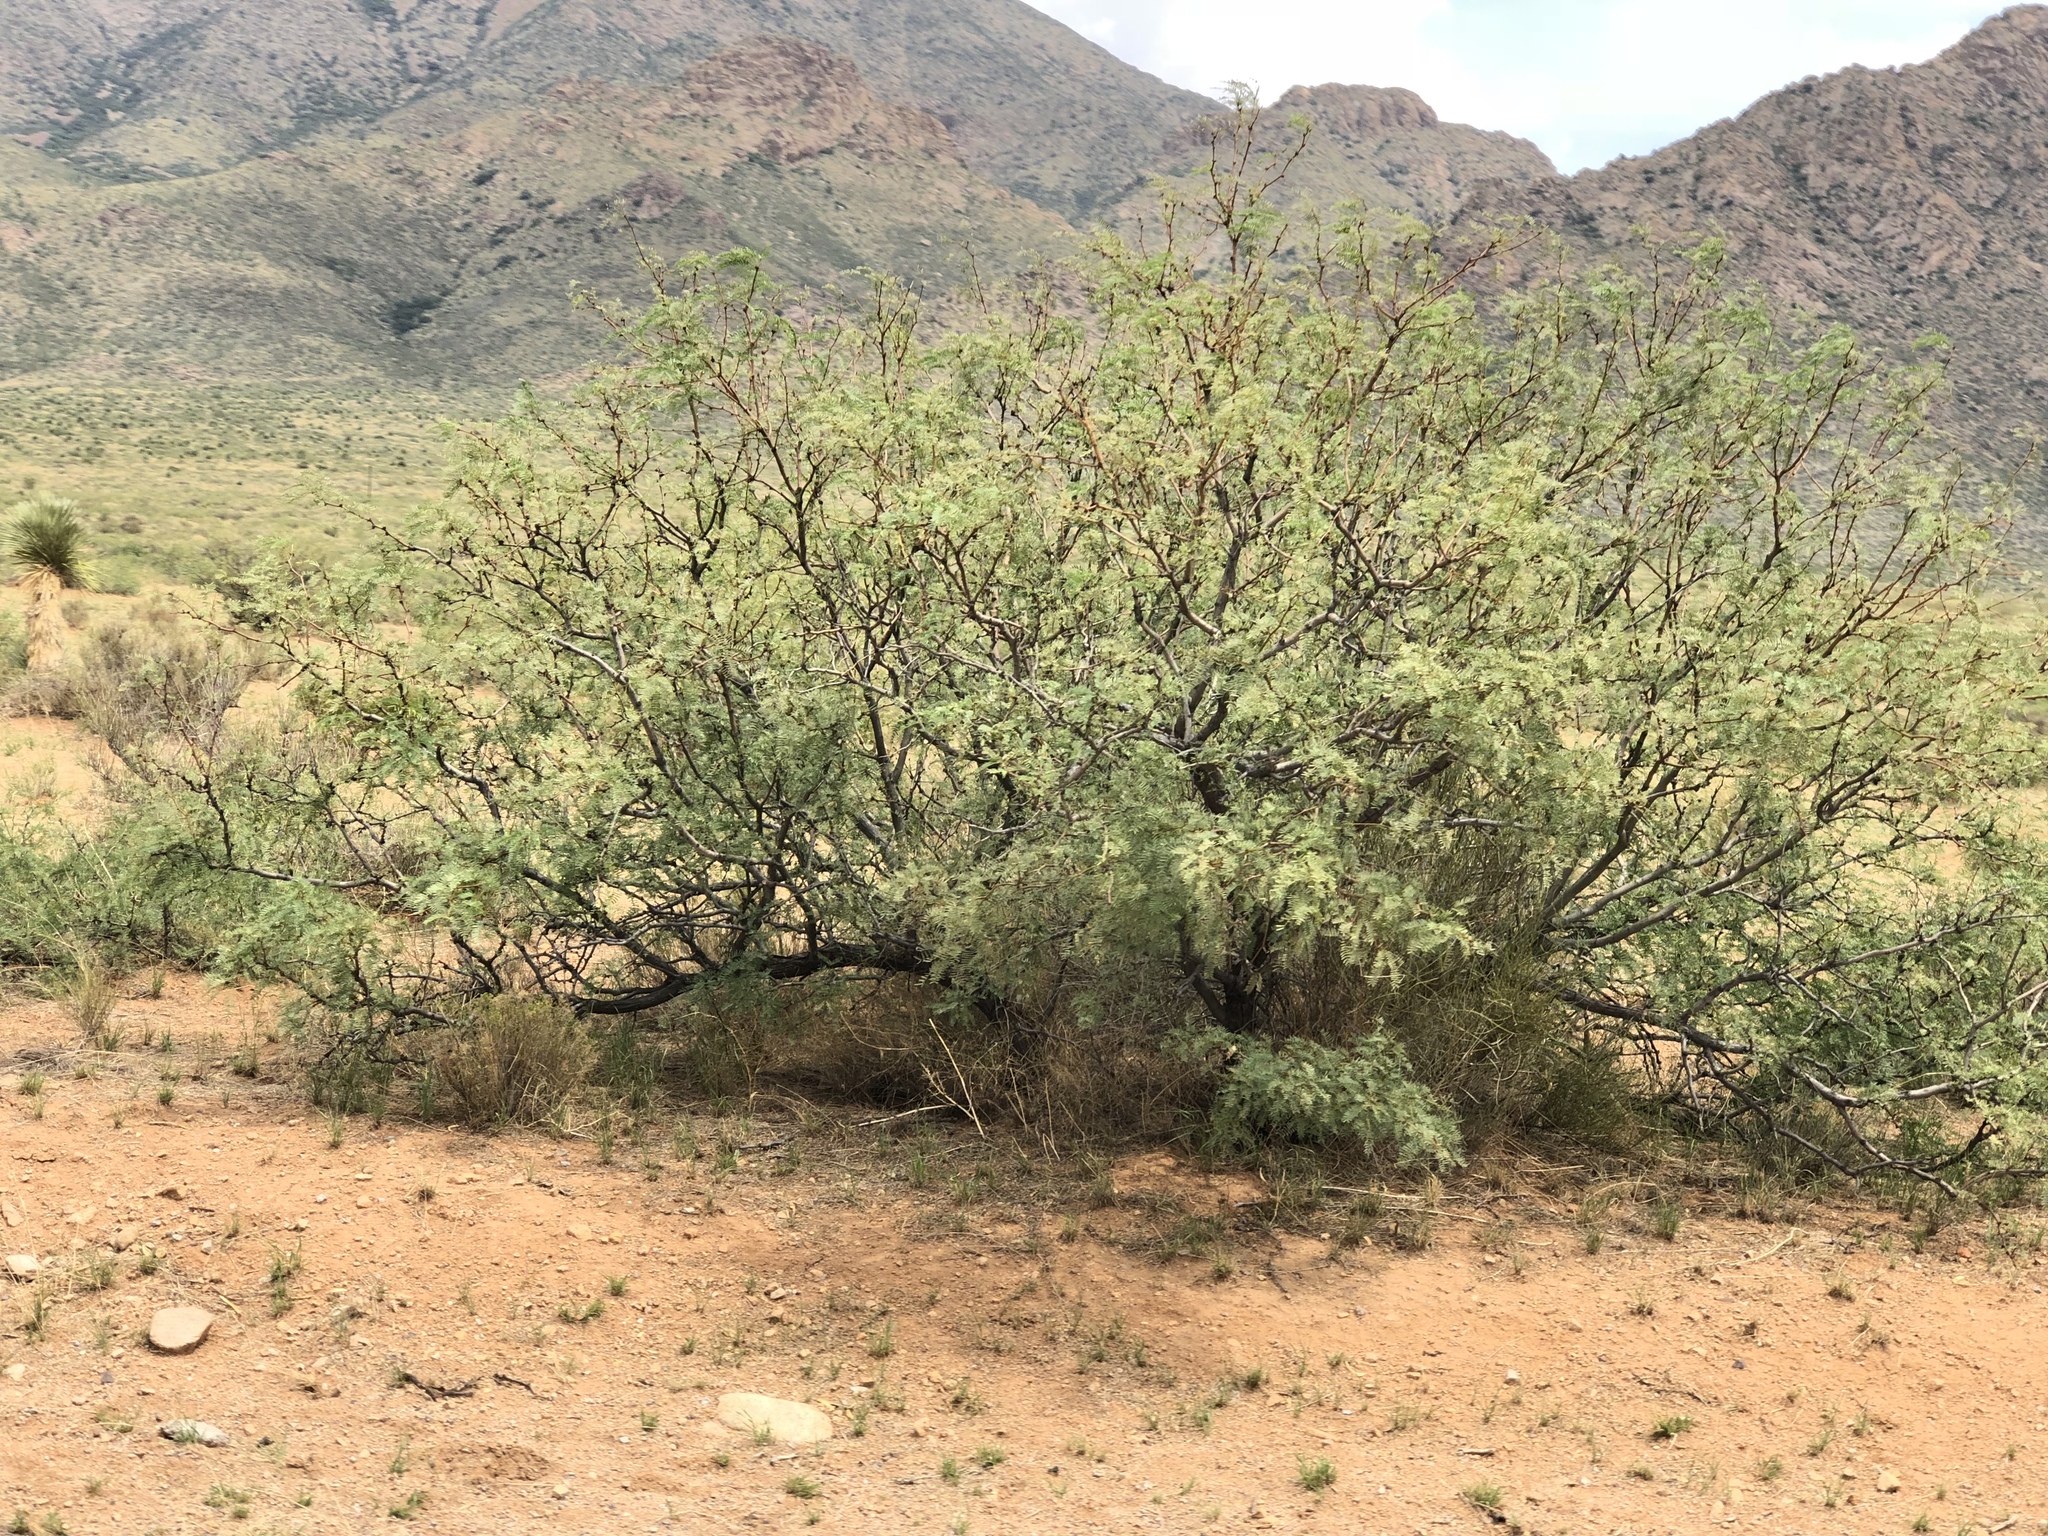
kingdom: Plantae
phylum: Tracheophyta
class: Magnoliopsida
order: Fabales
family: Fabaceae
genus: Prosopis
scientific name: Prosopis glandulosa
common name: Honey mesquite
